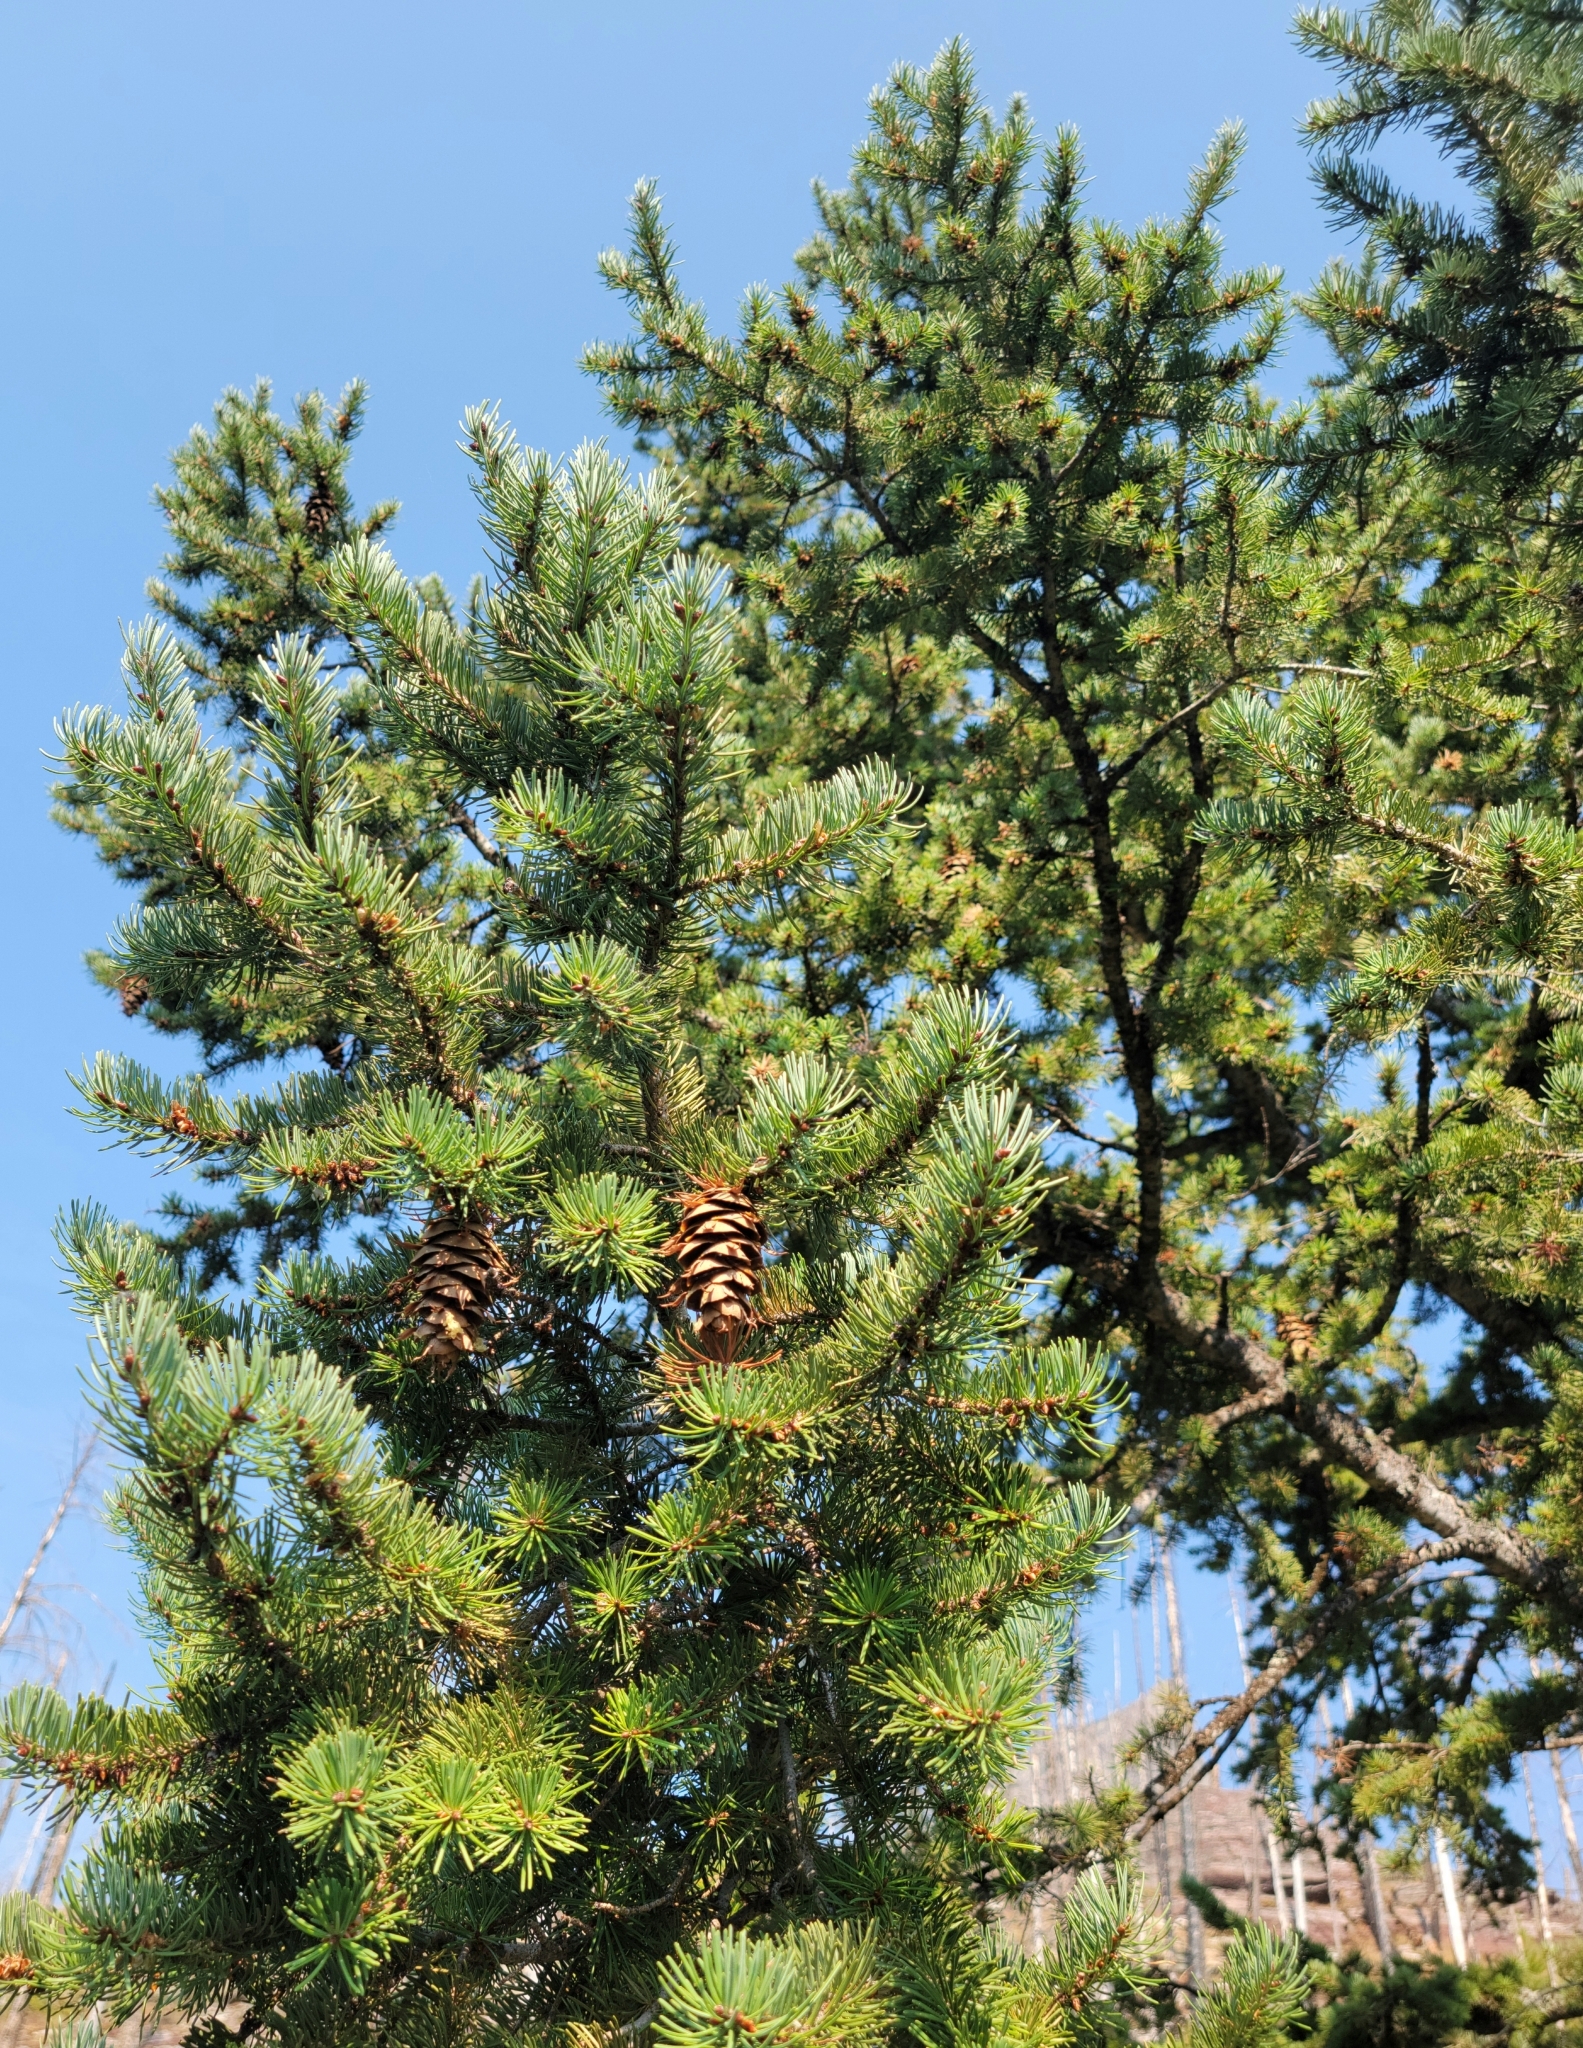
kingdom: Plantae
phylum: Tracheophyta
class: Pinopsida
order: Pinales
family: Pinaceae
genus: Pseudotsuga
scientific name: Pseudotsuga menziesii
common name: Douglas fir
